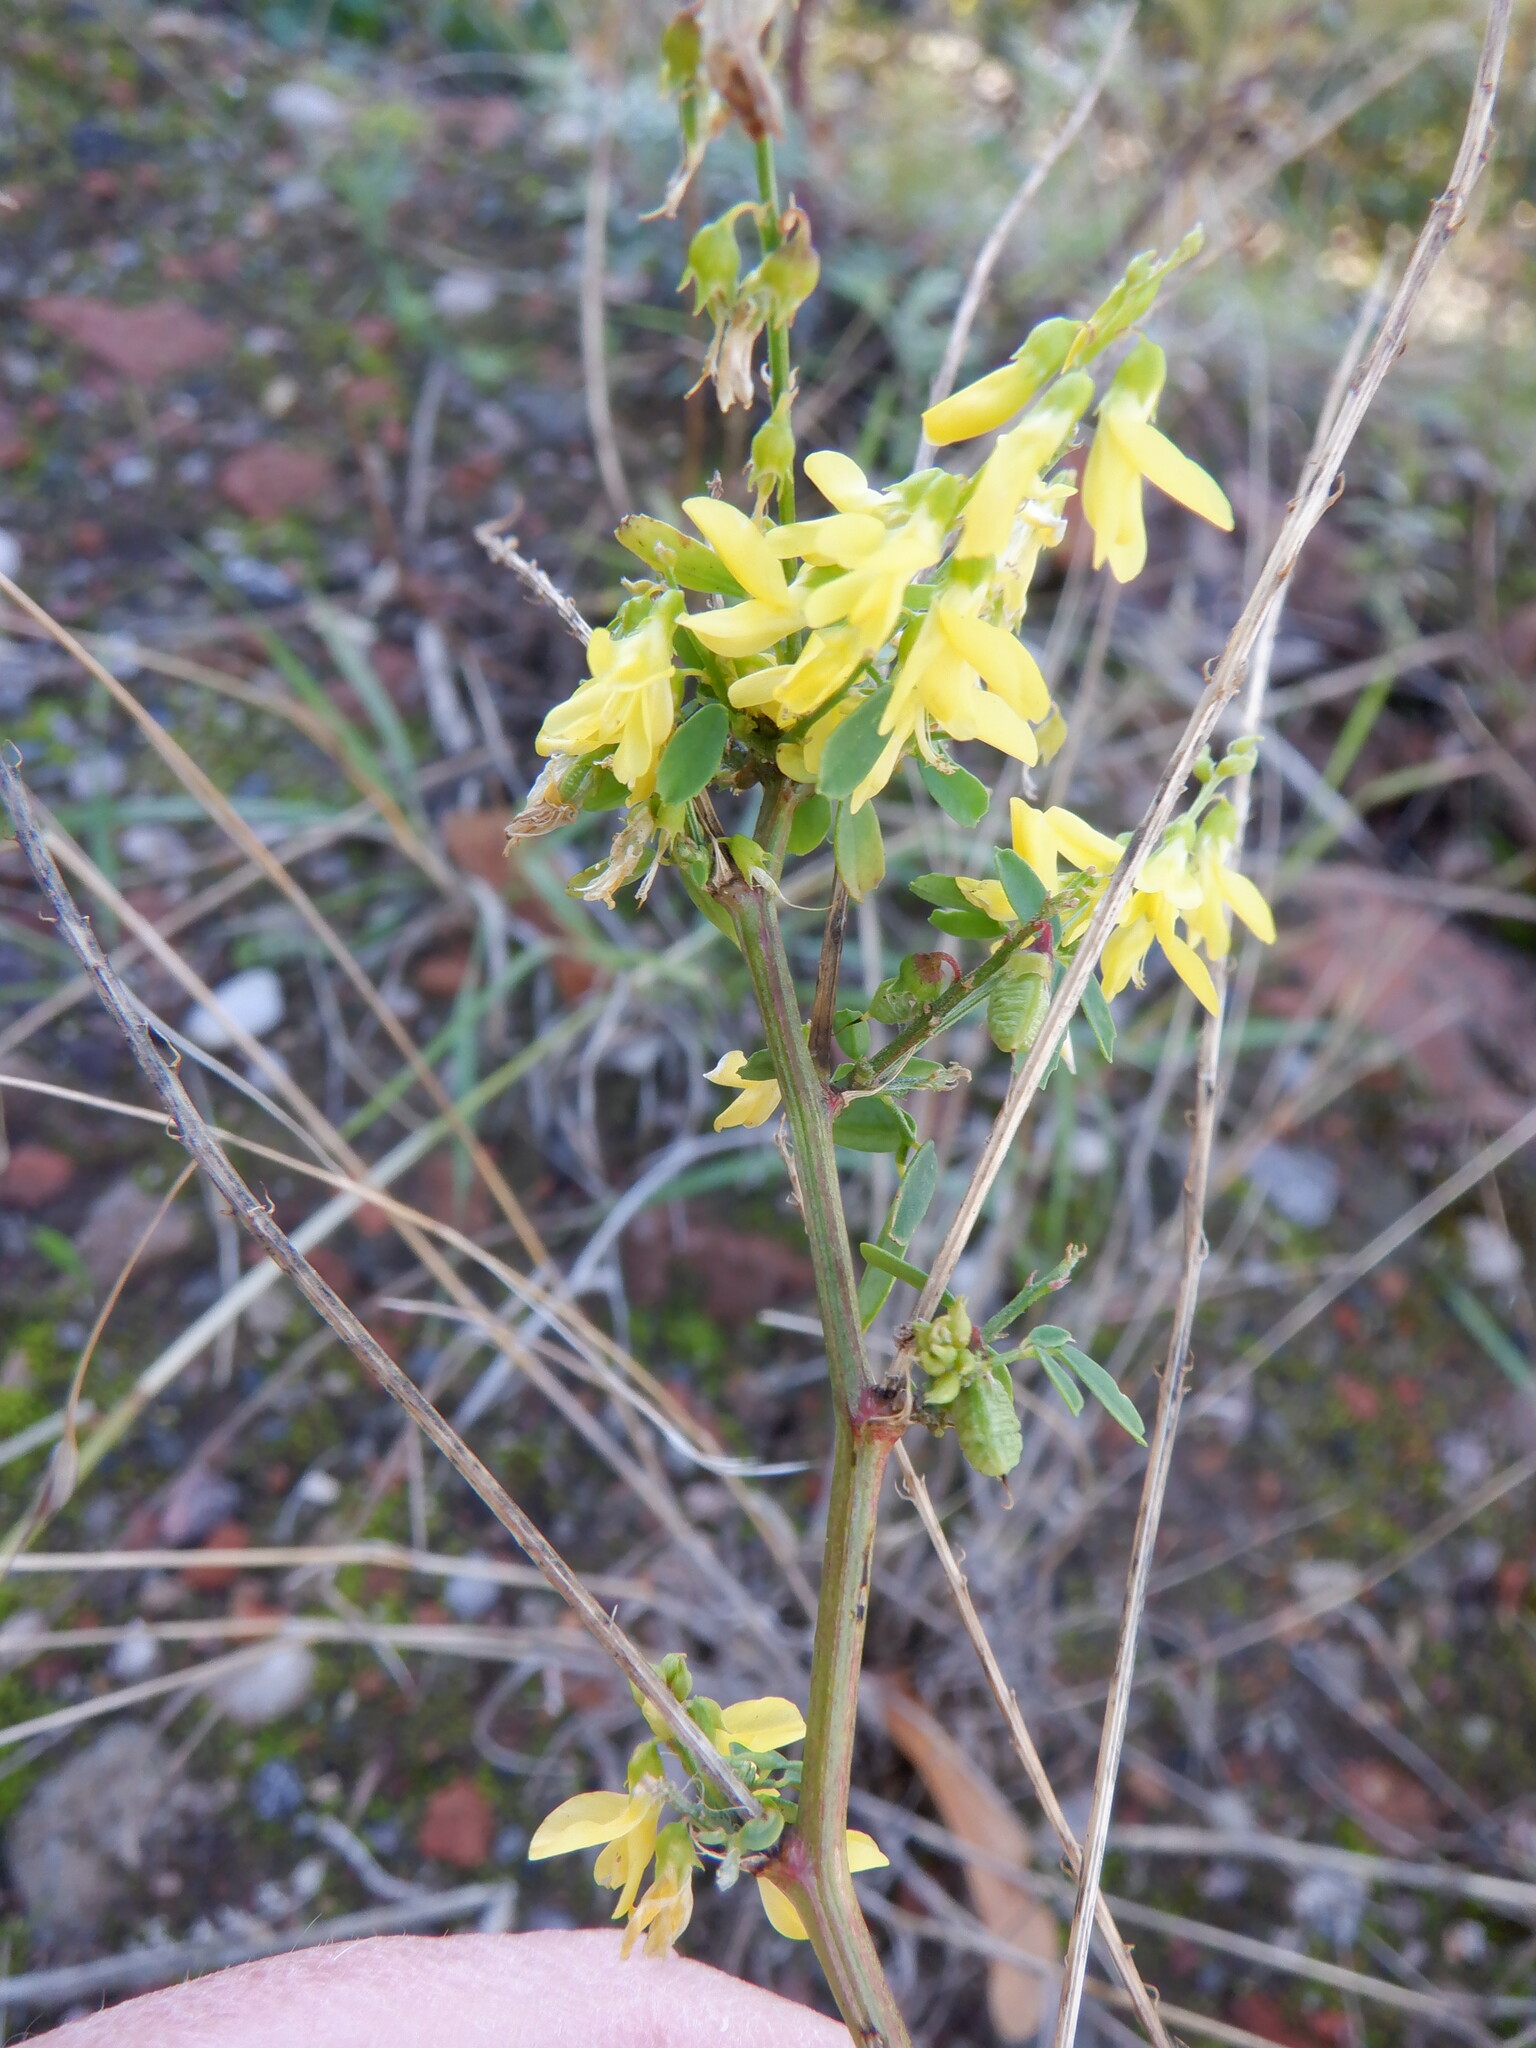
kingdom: Plantae
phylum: Tracheophyta
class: Magnoliopsida
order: Fabales
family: Fabaceae
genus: Melilotus
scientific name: Melilotus officinalis
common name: Sweetclover
